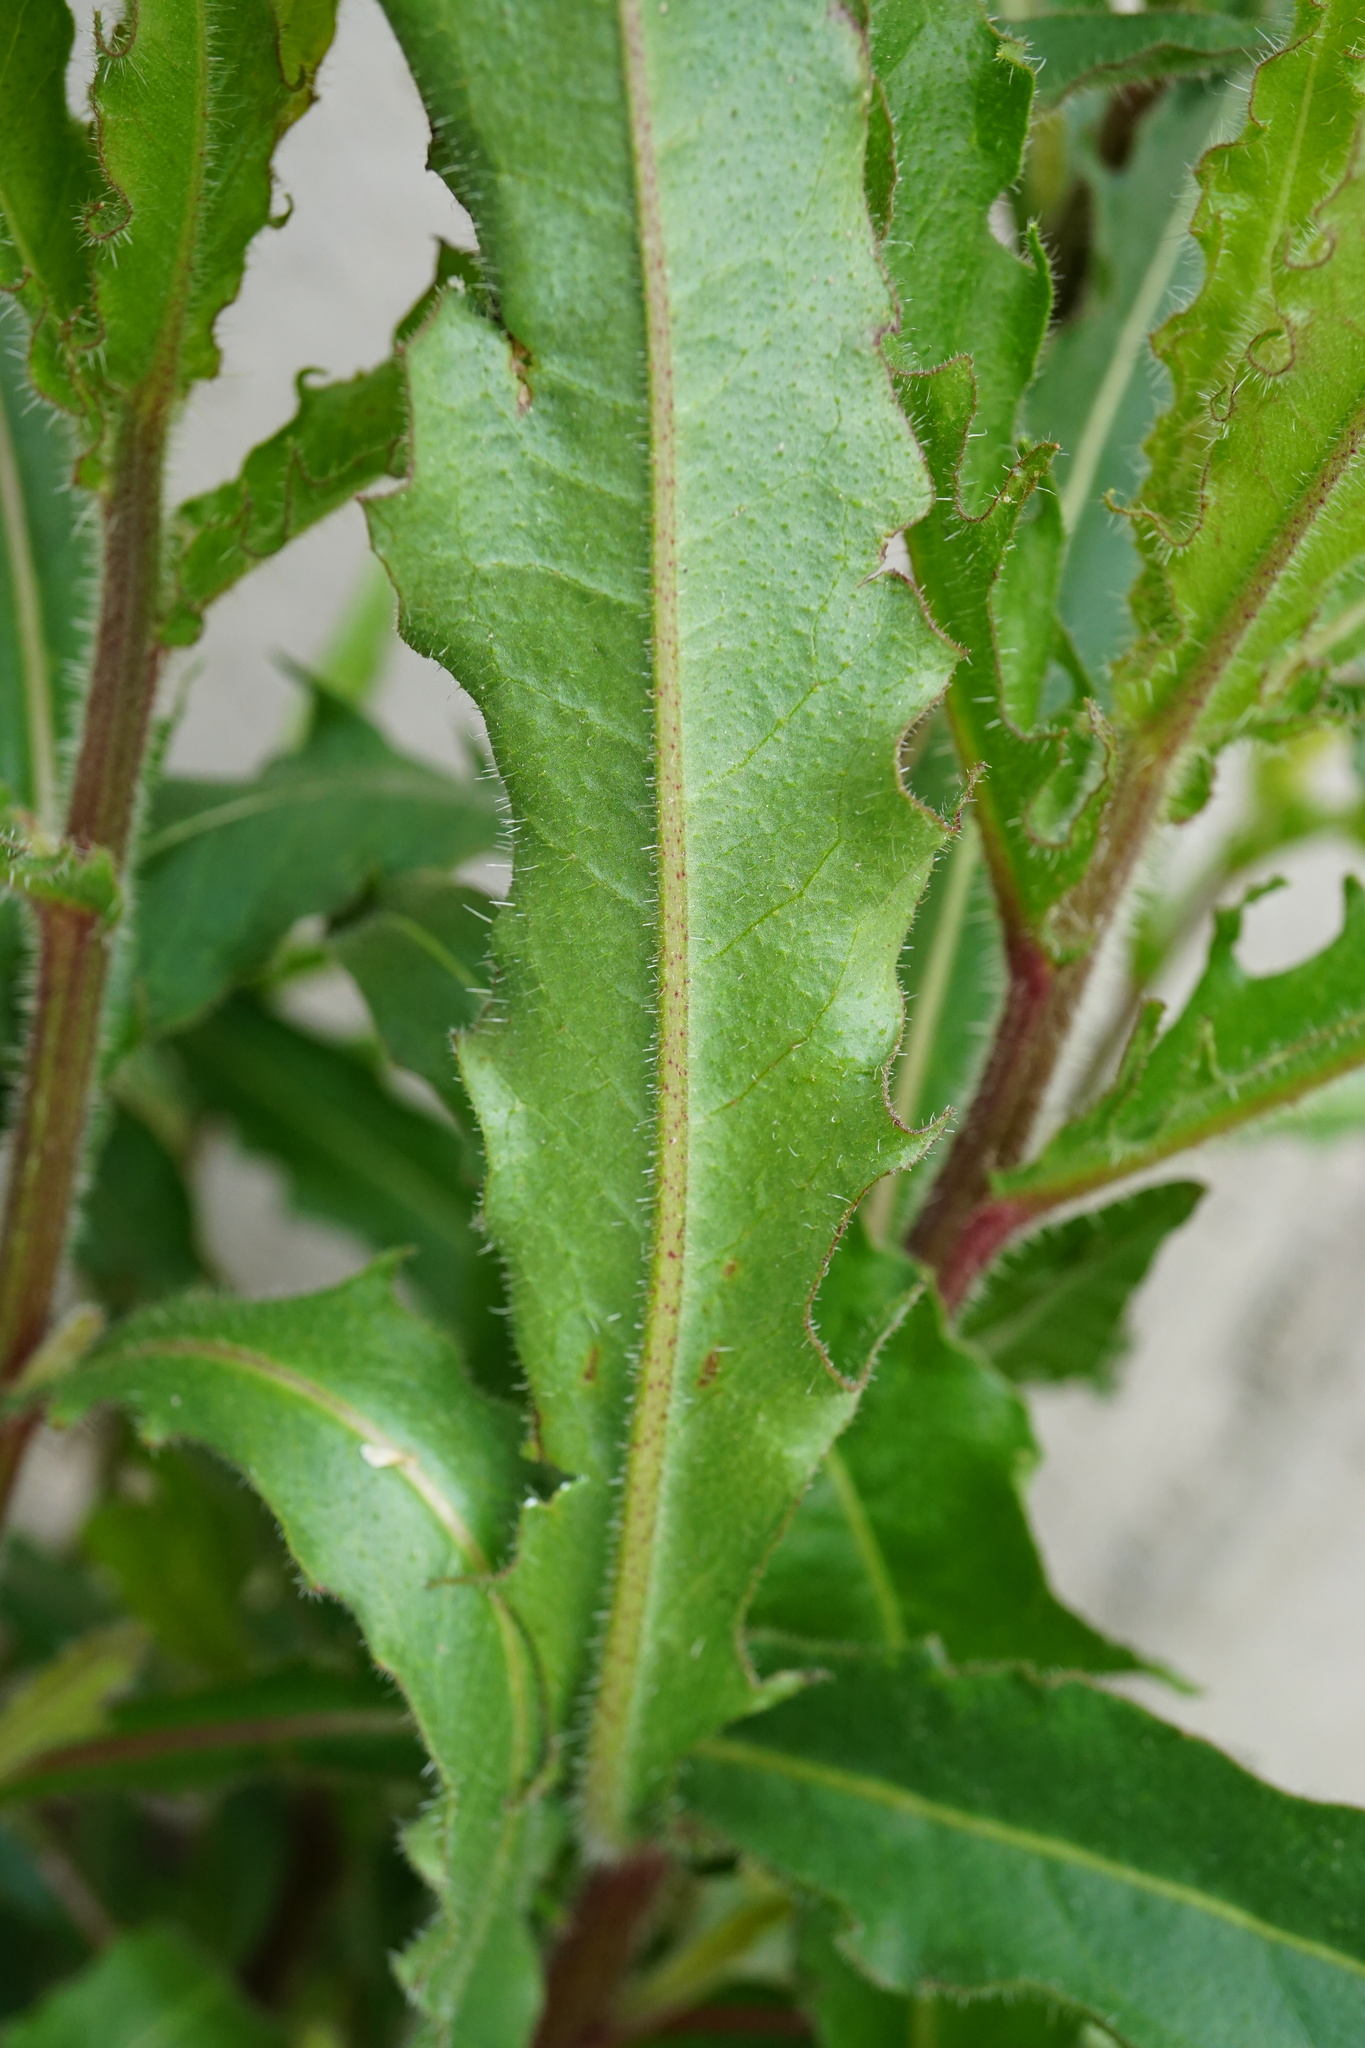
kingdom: Plantae
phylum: Tracheophyta
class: Magnoliopsida
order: Asterales
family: Asteraceae
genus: Picris
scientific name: Picris hieracioides
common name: Hawkweed oxtongue
